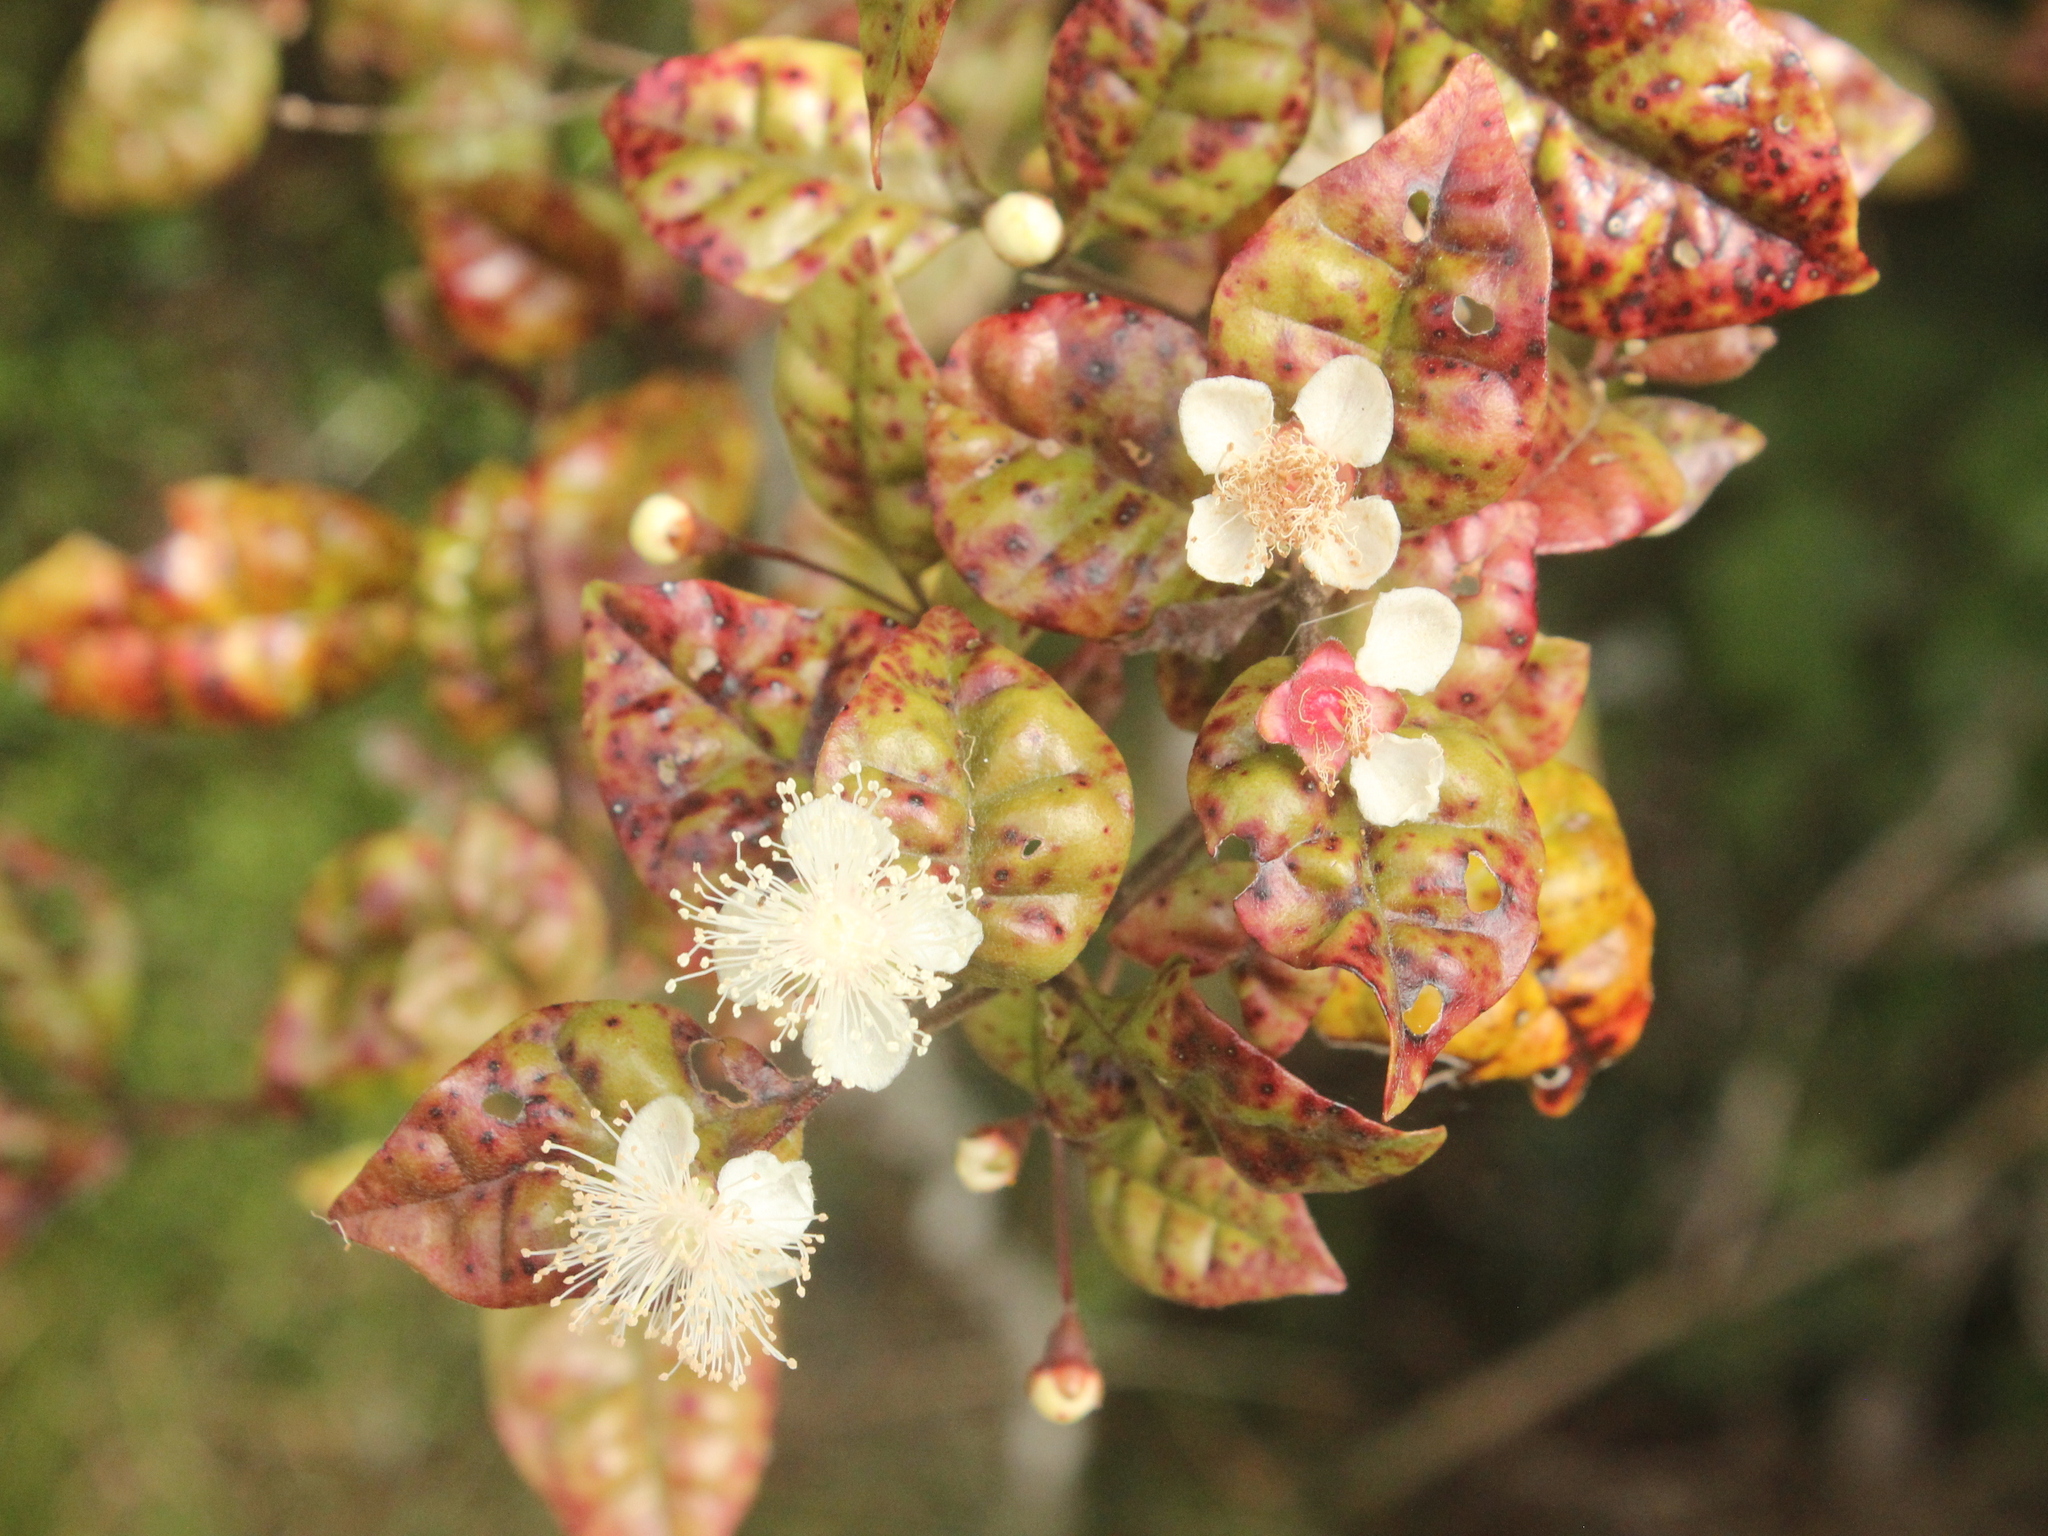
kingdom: Plantae
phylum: Tracheophyta
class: Magnoliopsida
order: Myrtales
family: Myrtaceae
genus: Lophomyrtus
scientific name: Lophomyrtus bullata
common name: Rama rama
